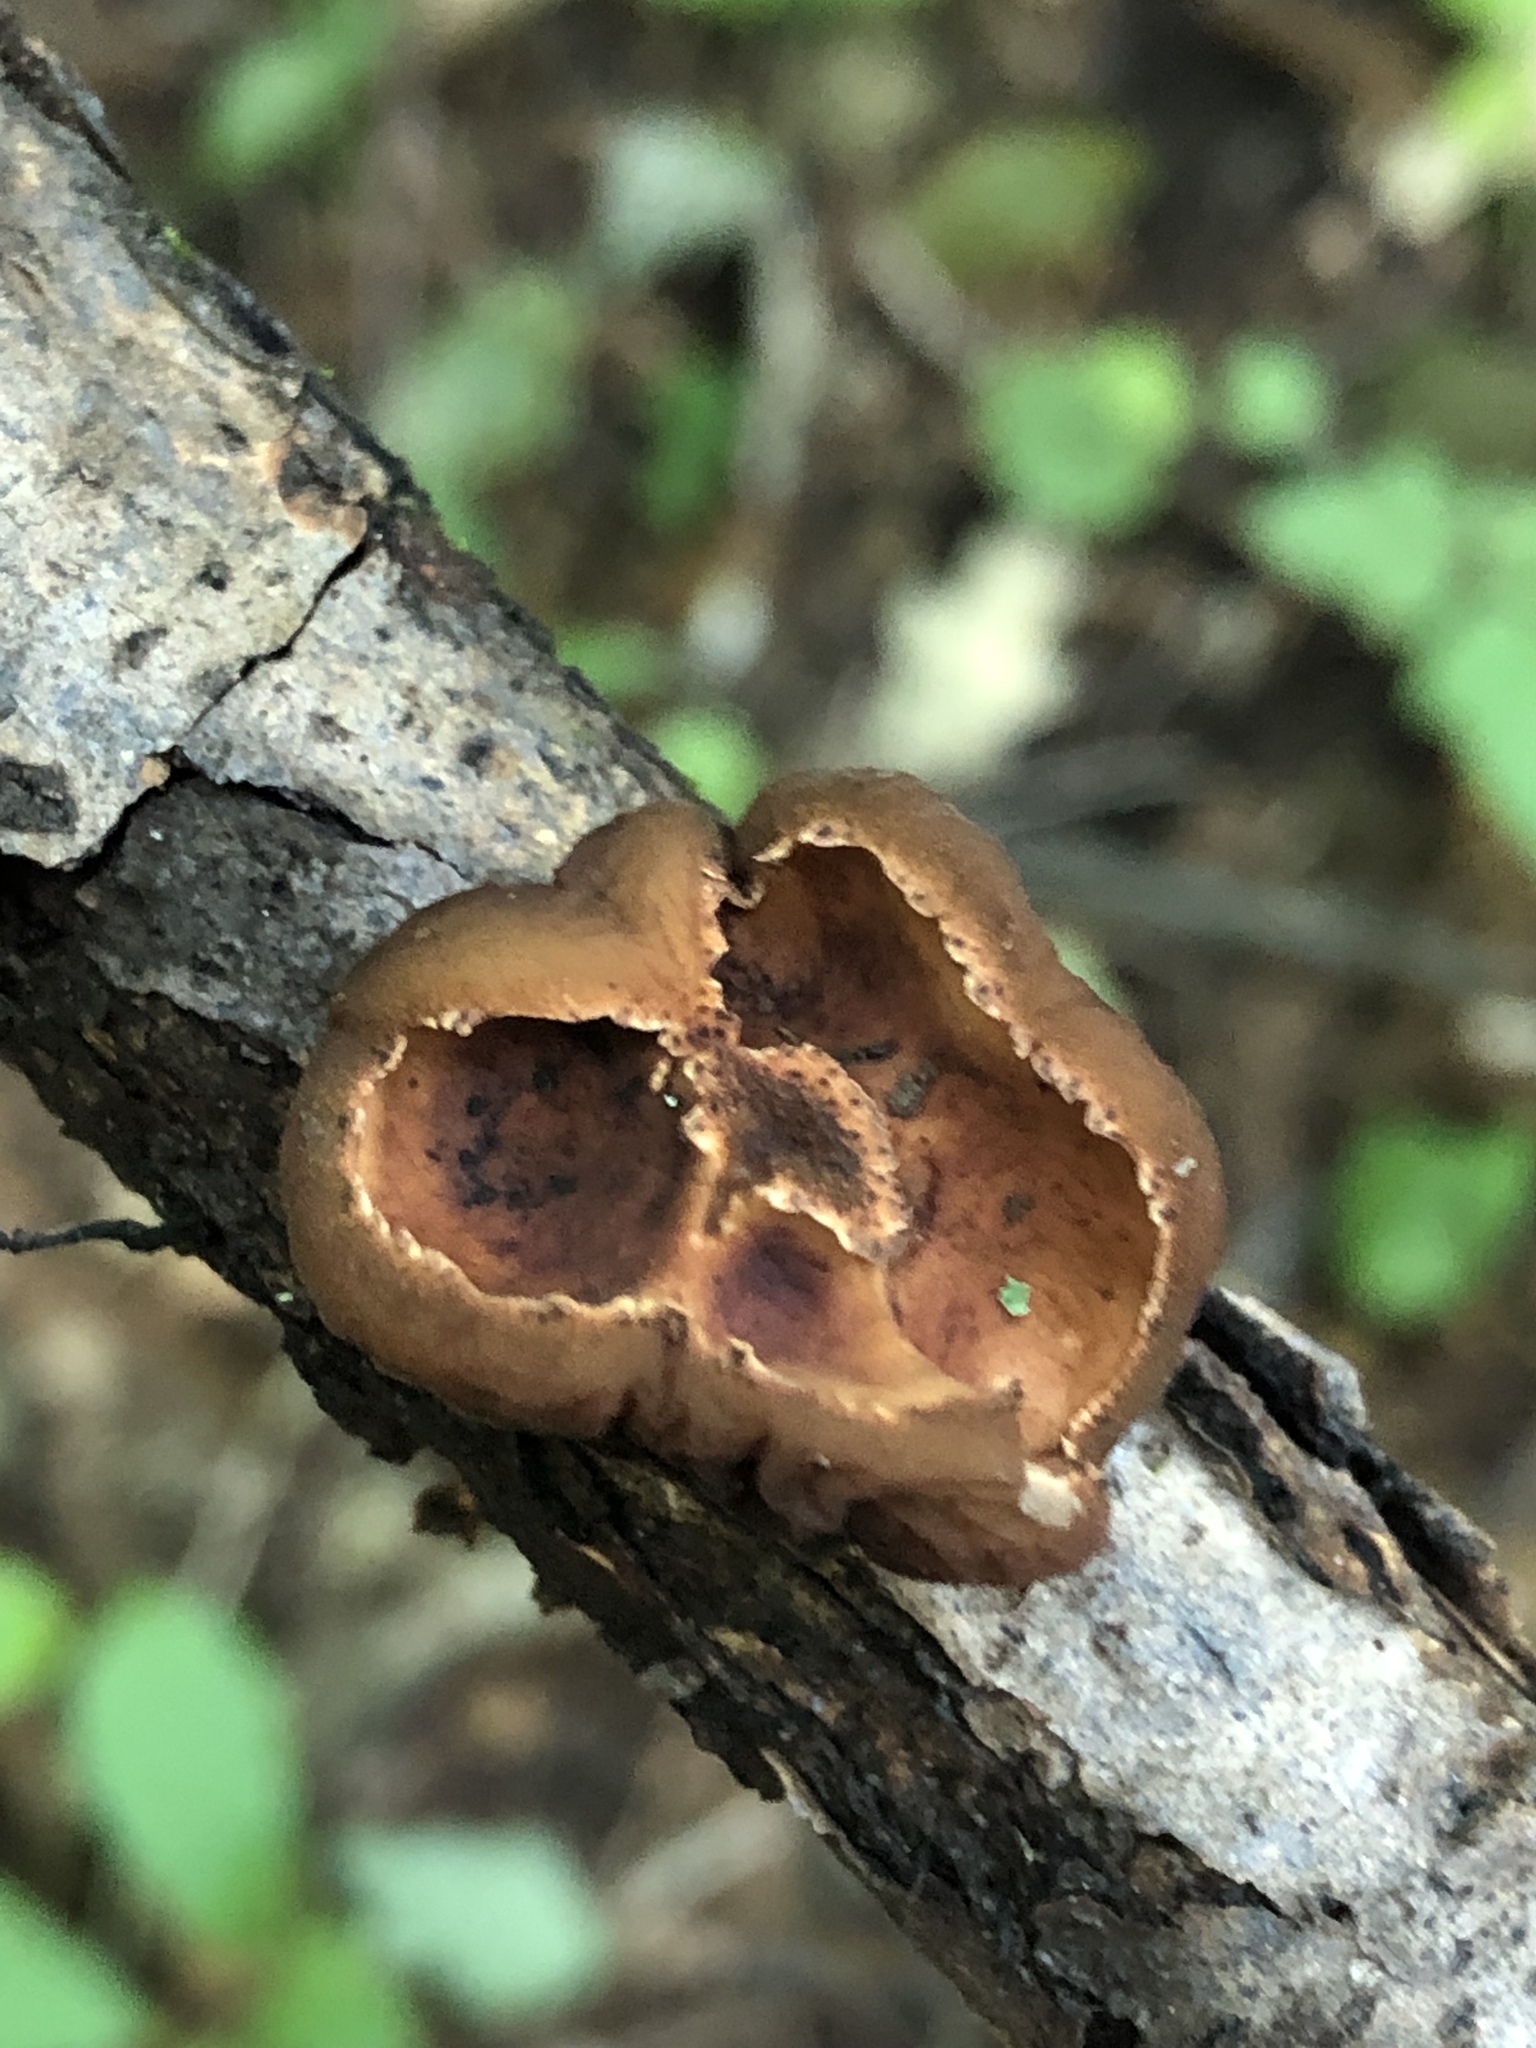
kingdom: Fungi
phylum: Ascomycota
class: Pezizomycetes
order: Pezizales
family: Sarcosomataceae
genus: Galiella
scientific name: Galiella rufa
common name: Hairy rubber cup
